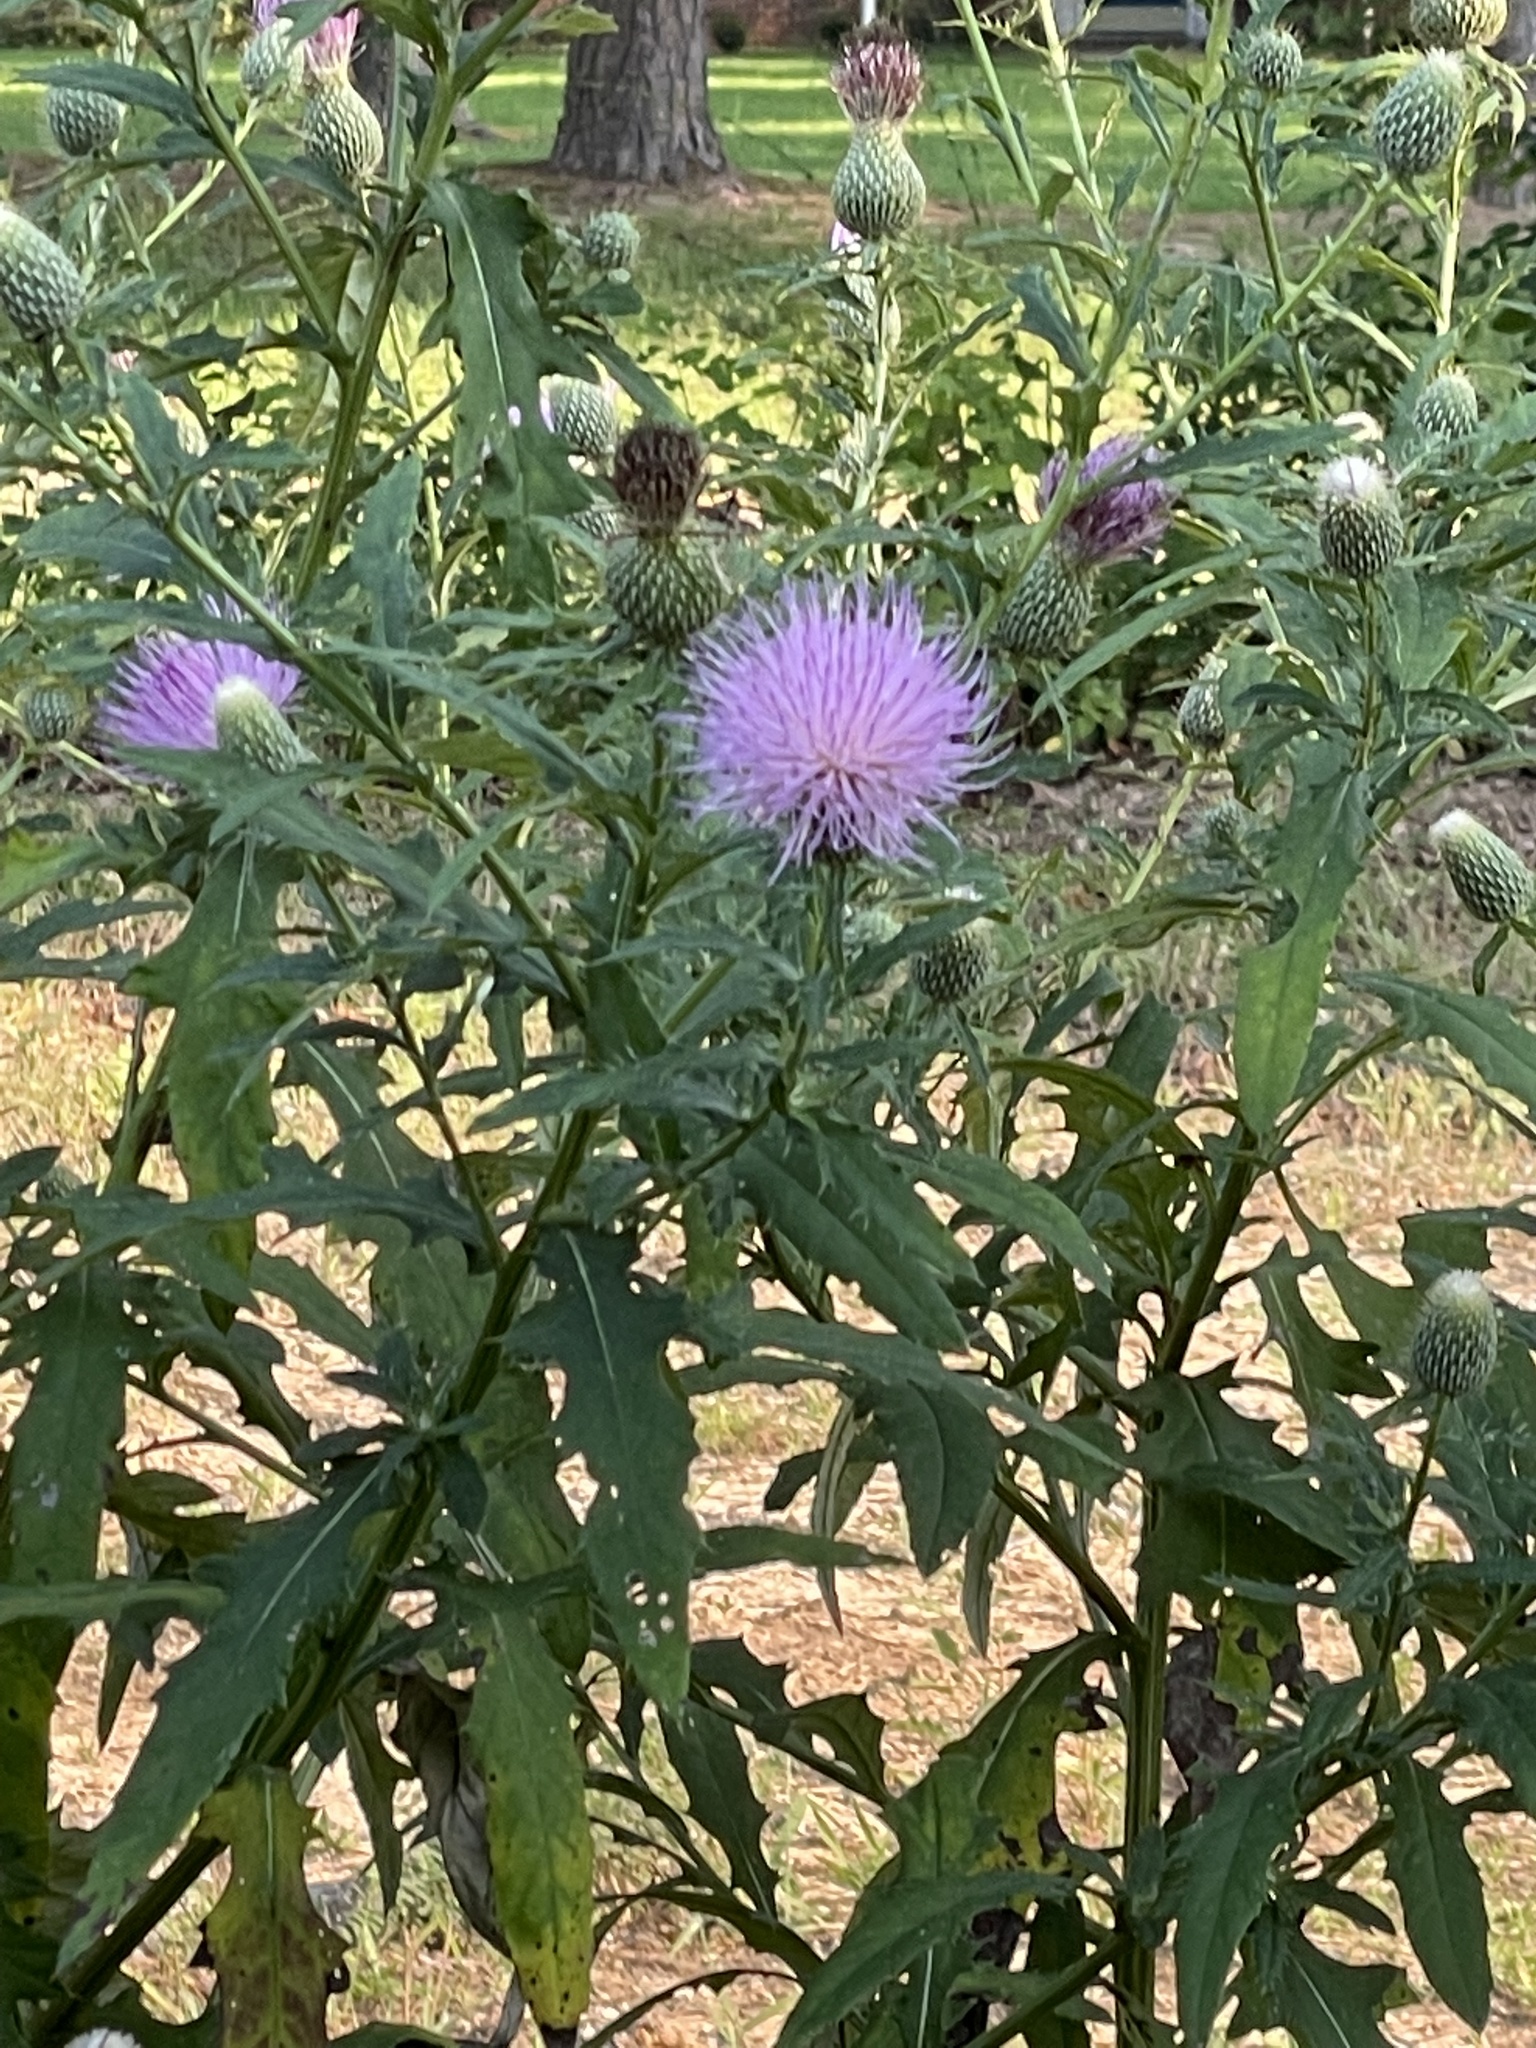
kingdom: Plantae
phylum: Tracheophyta
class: Magnoliopsida
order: Asterales
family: Asteraceae
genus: Cirsium
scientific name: Cirsium altissimum
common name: Roadside thistle
